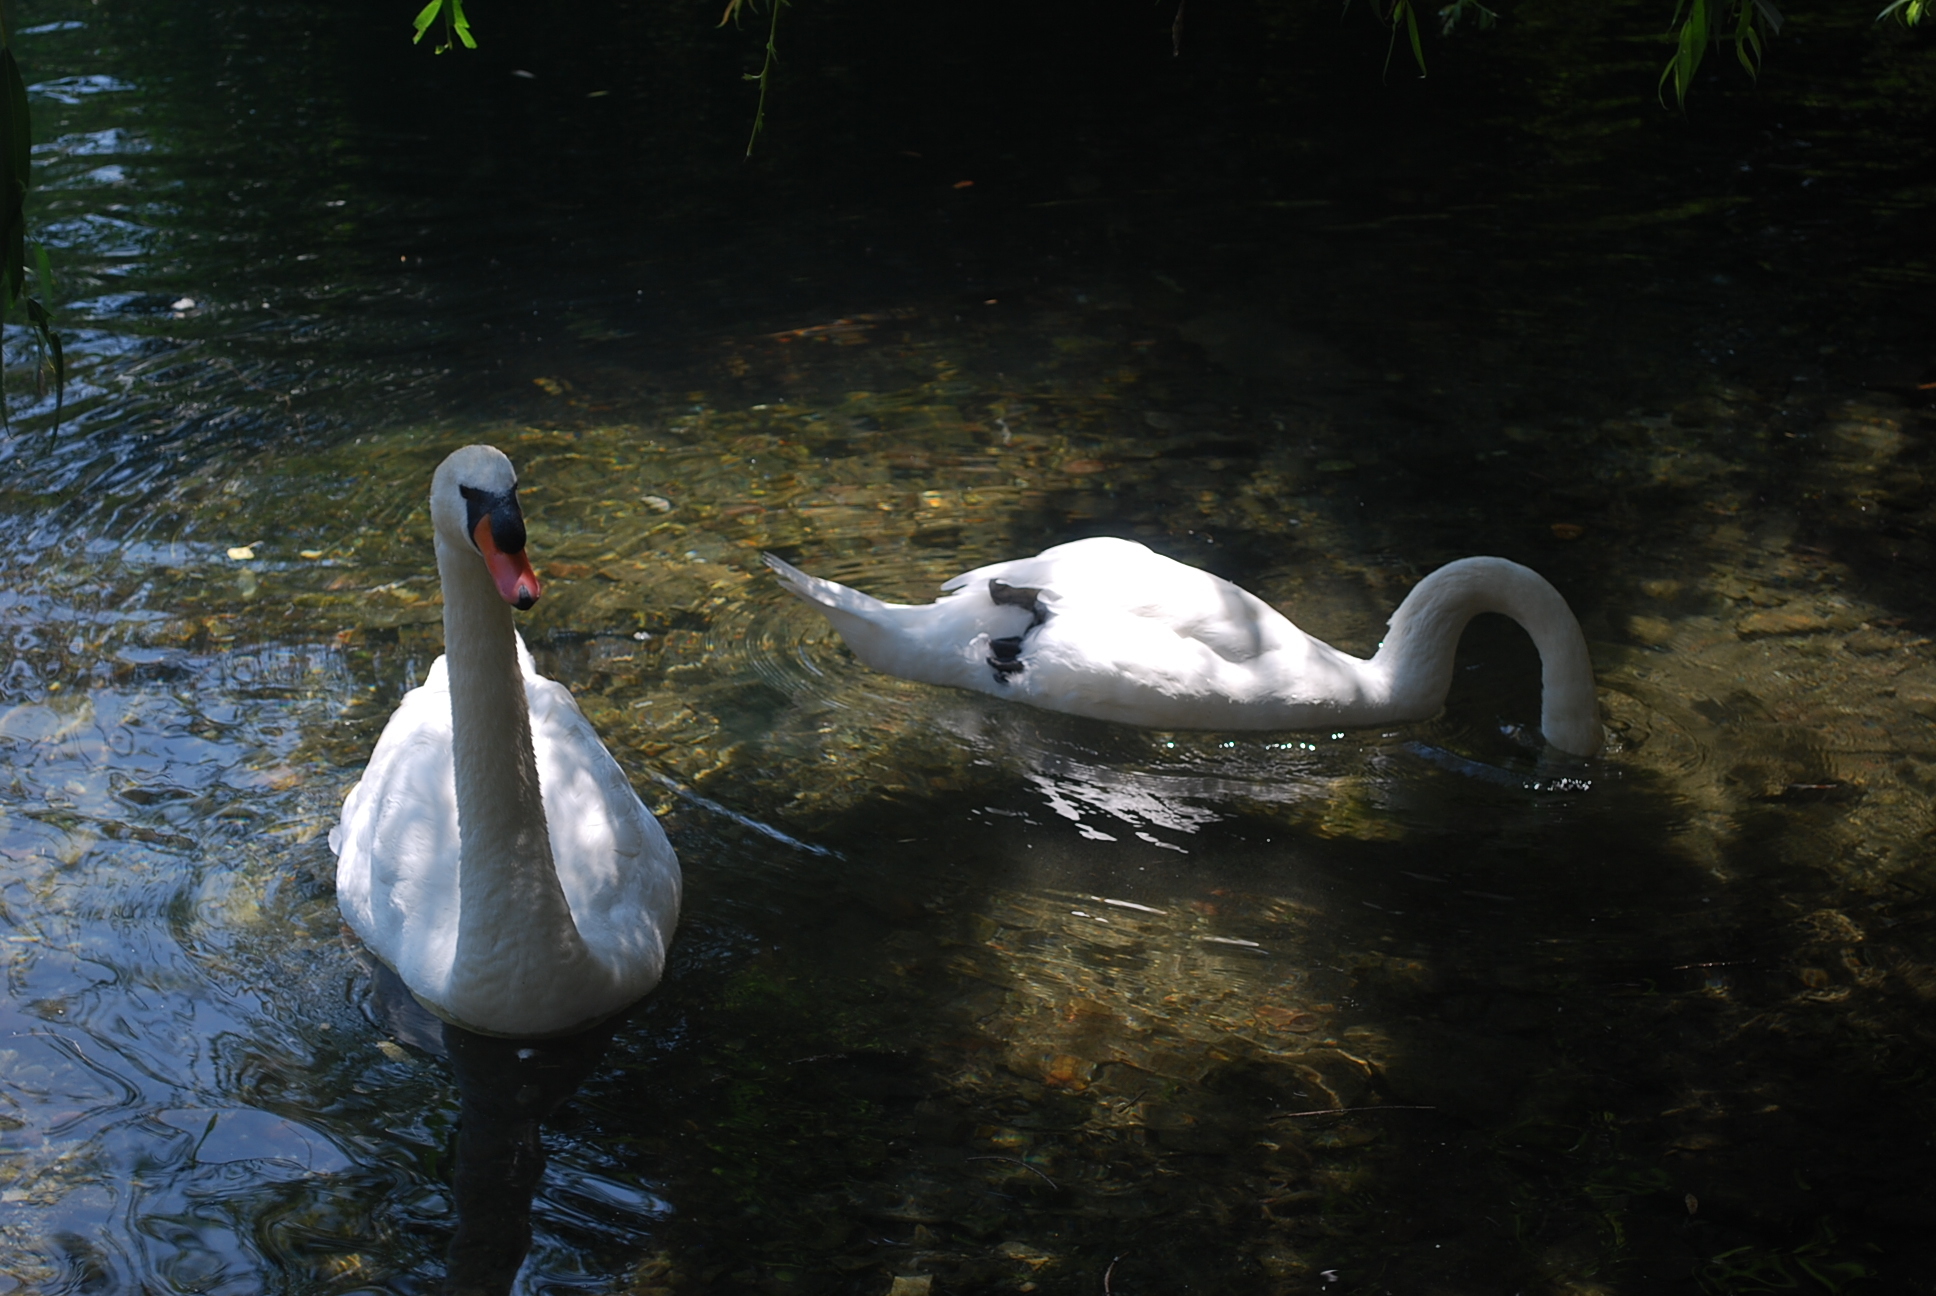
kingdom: Animalia
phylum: Chordata
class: Aves
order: Anseriformes
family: Anatidae
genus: Cygnus
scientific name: Cygnus olor
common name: Mute swan
